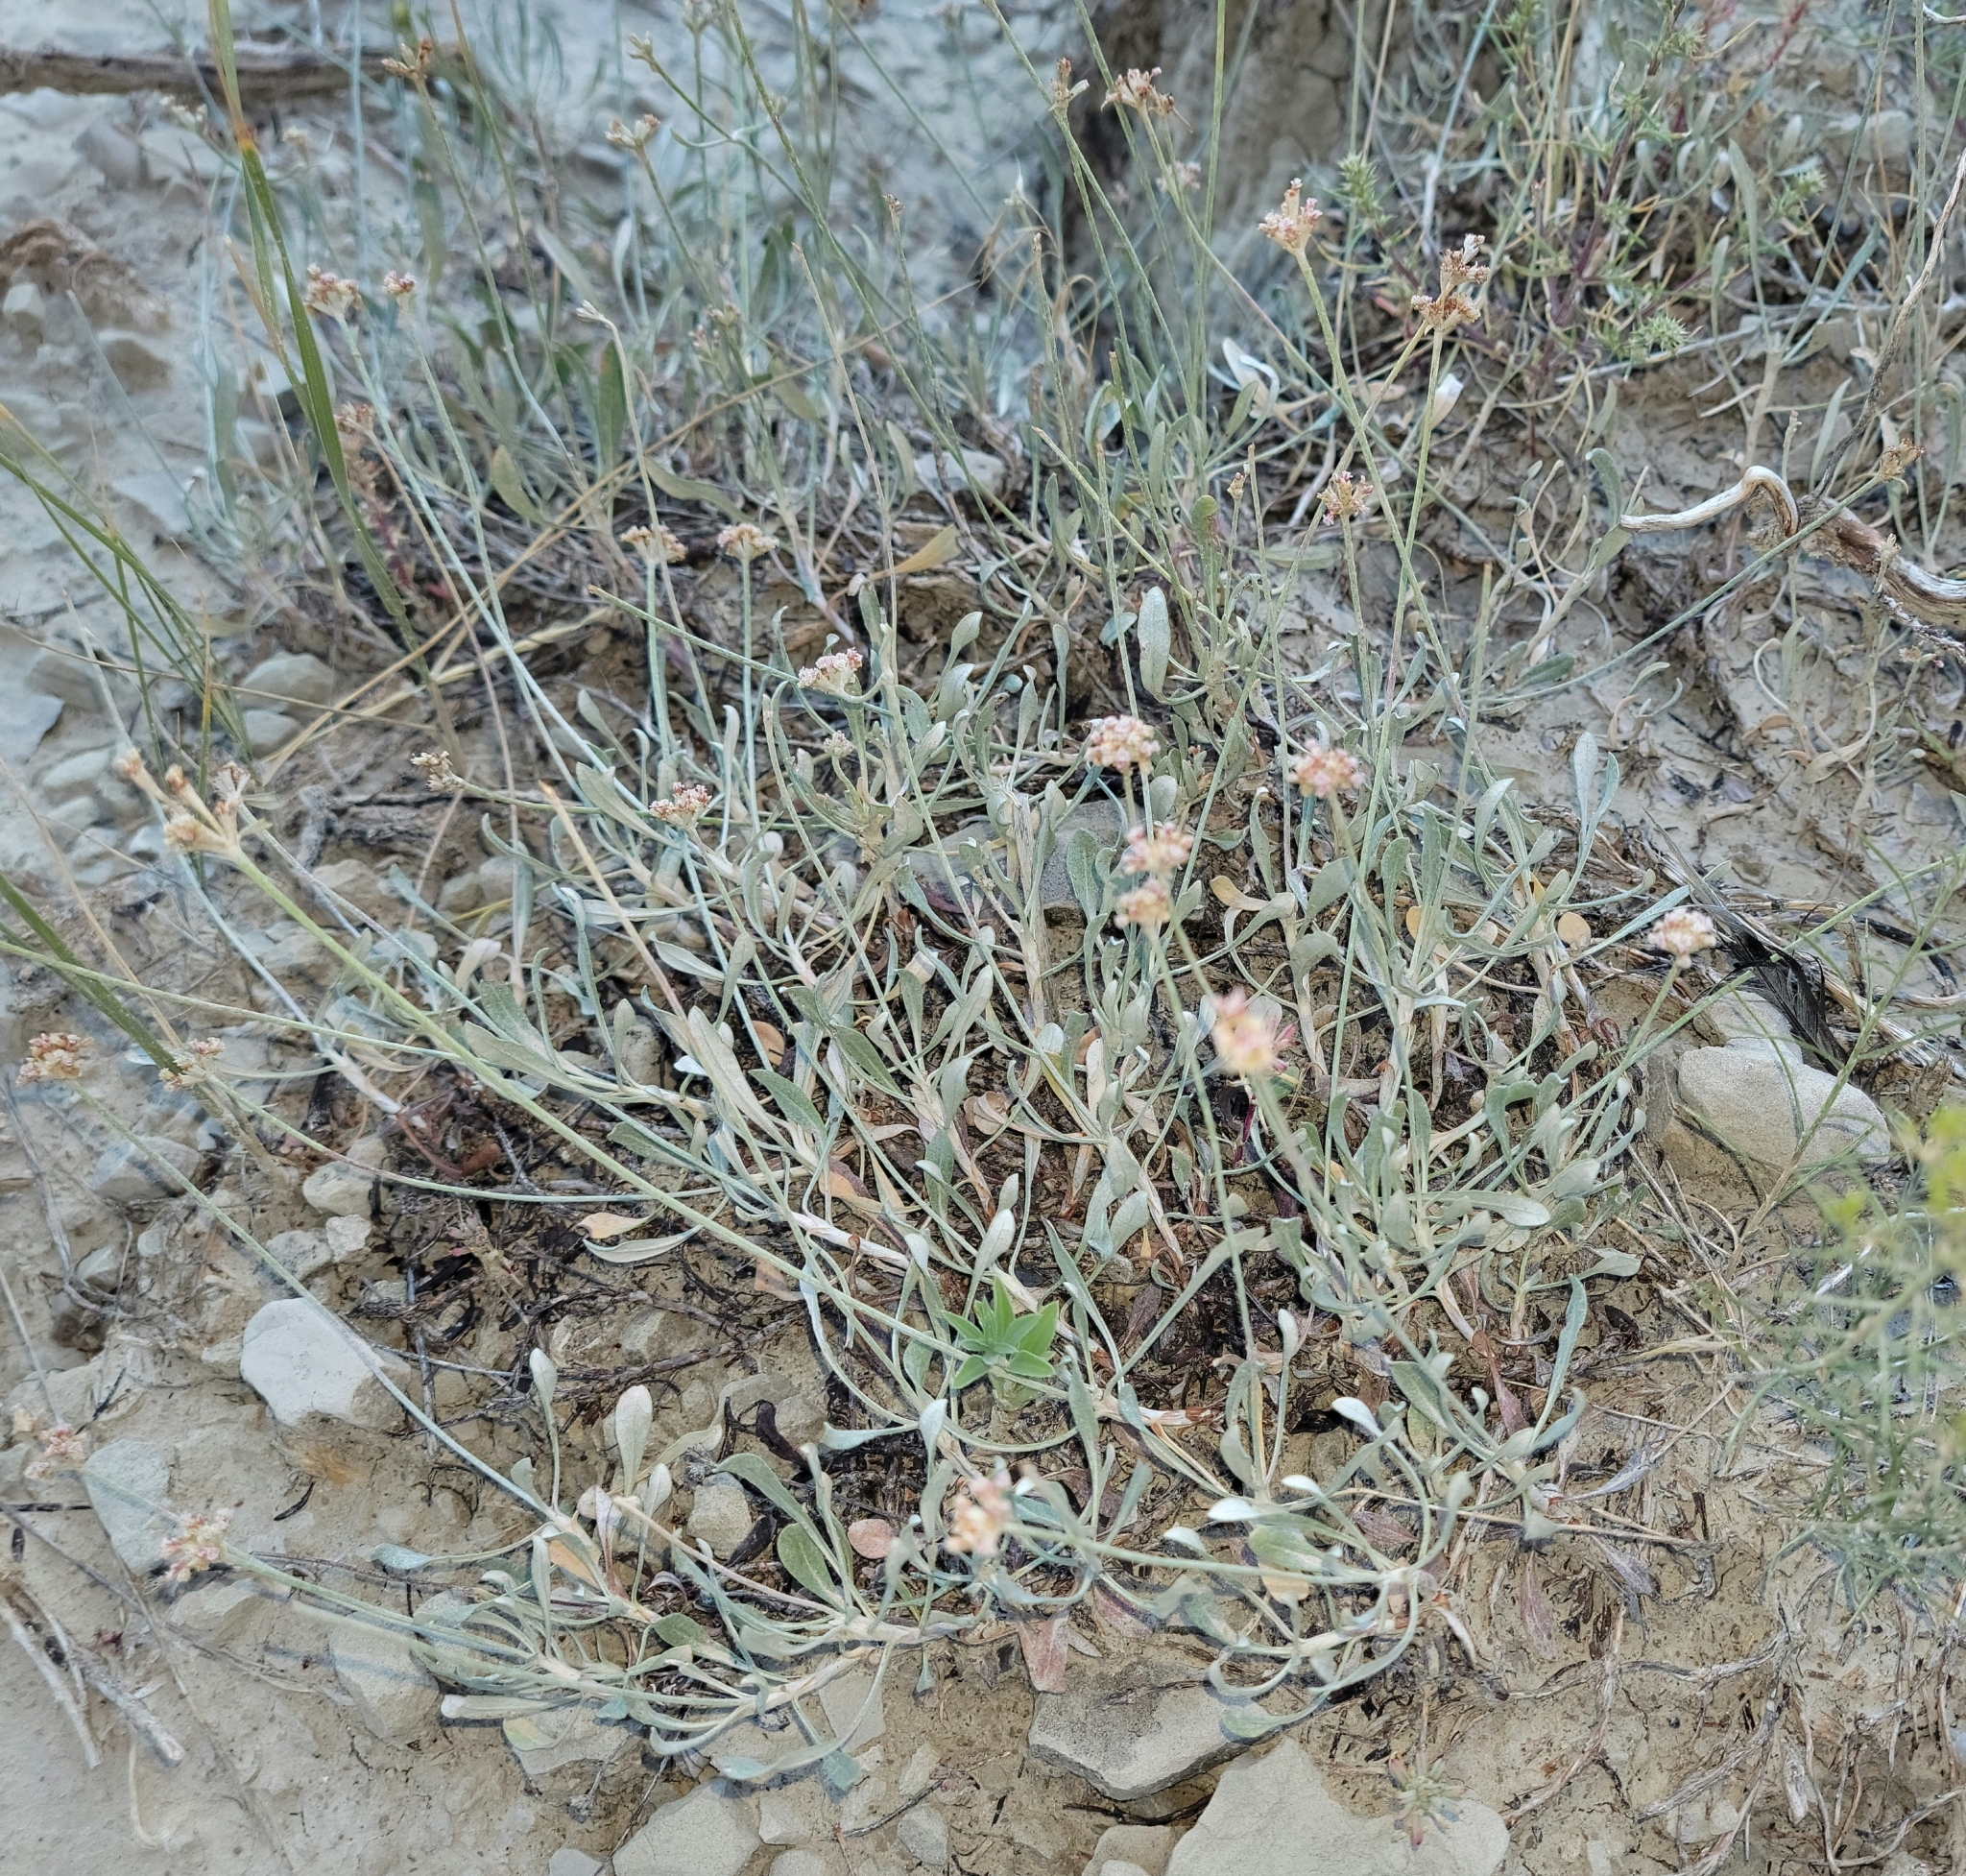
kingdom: Plantae
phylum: Tracheophyta
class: Magnoliopsida
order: Caryophyllales
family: Polygonaceae
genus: Eriogonum
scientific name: Eriogonum pauciflorum
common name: Few-flower wild buckwheat
